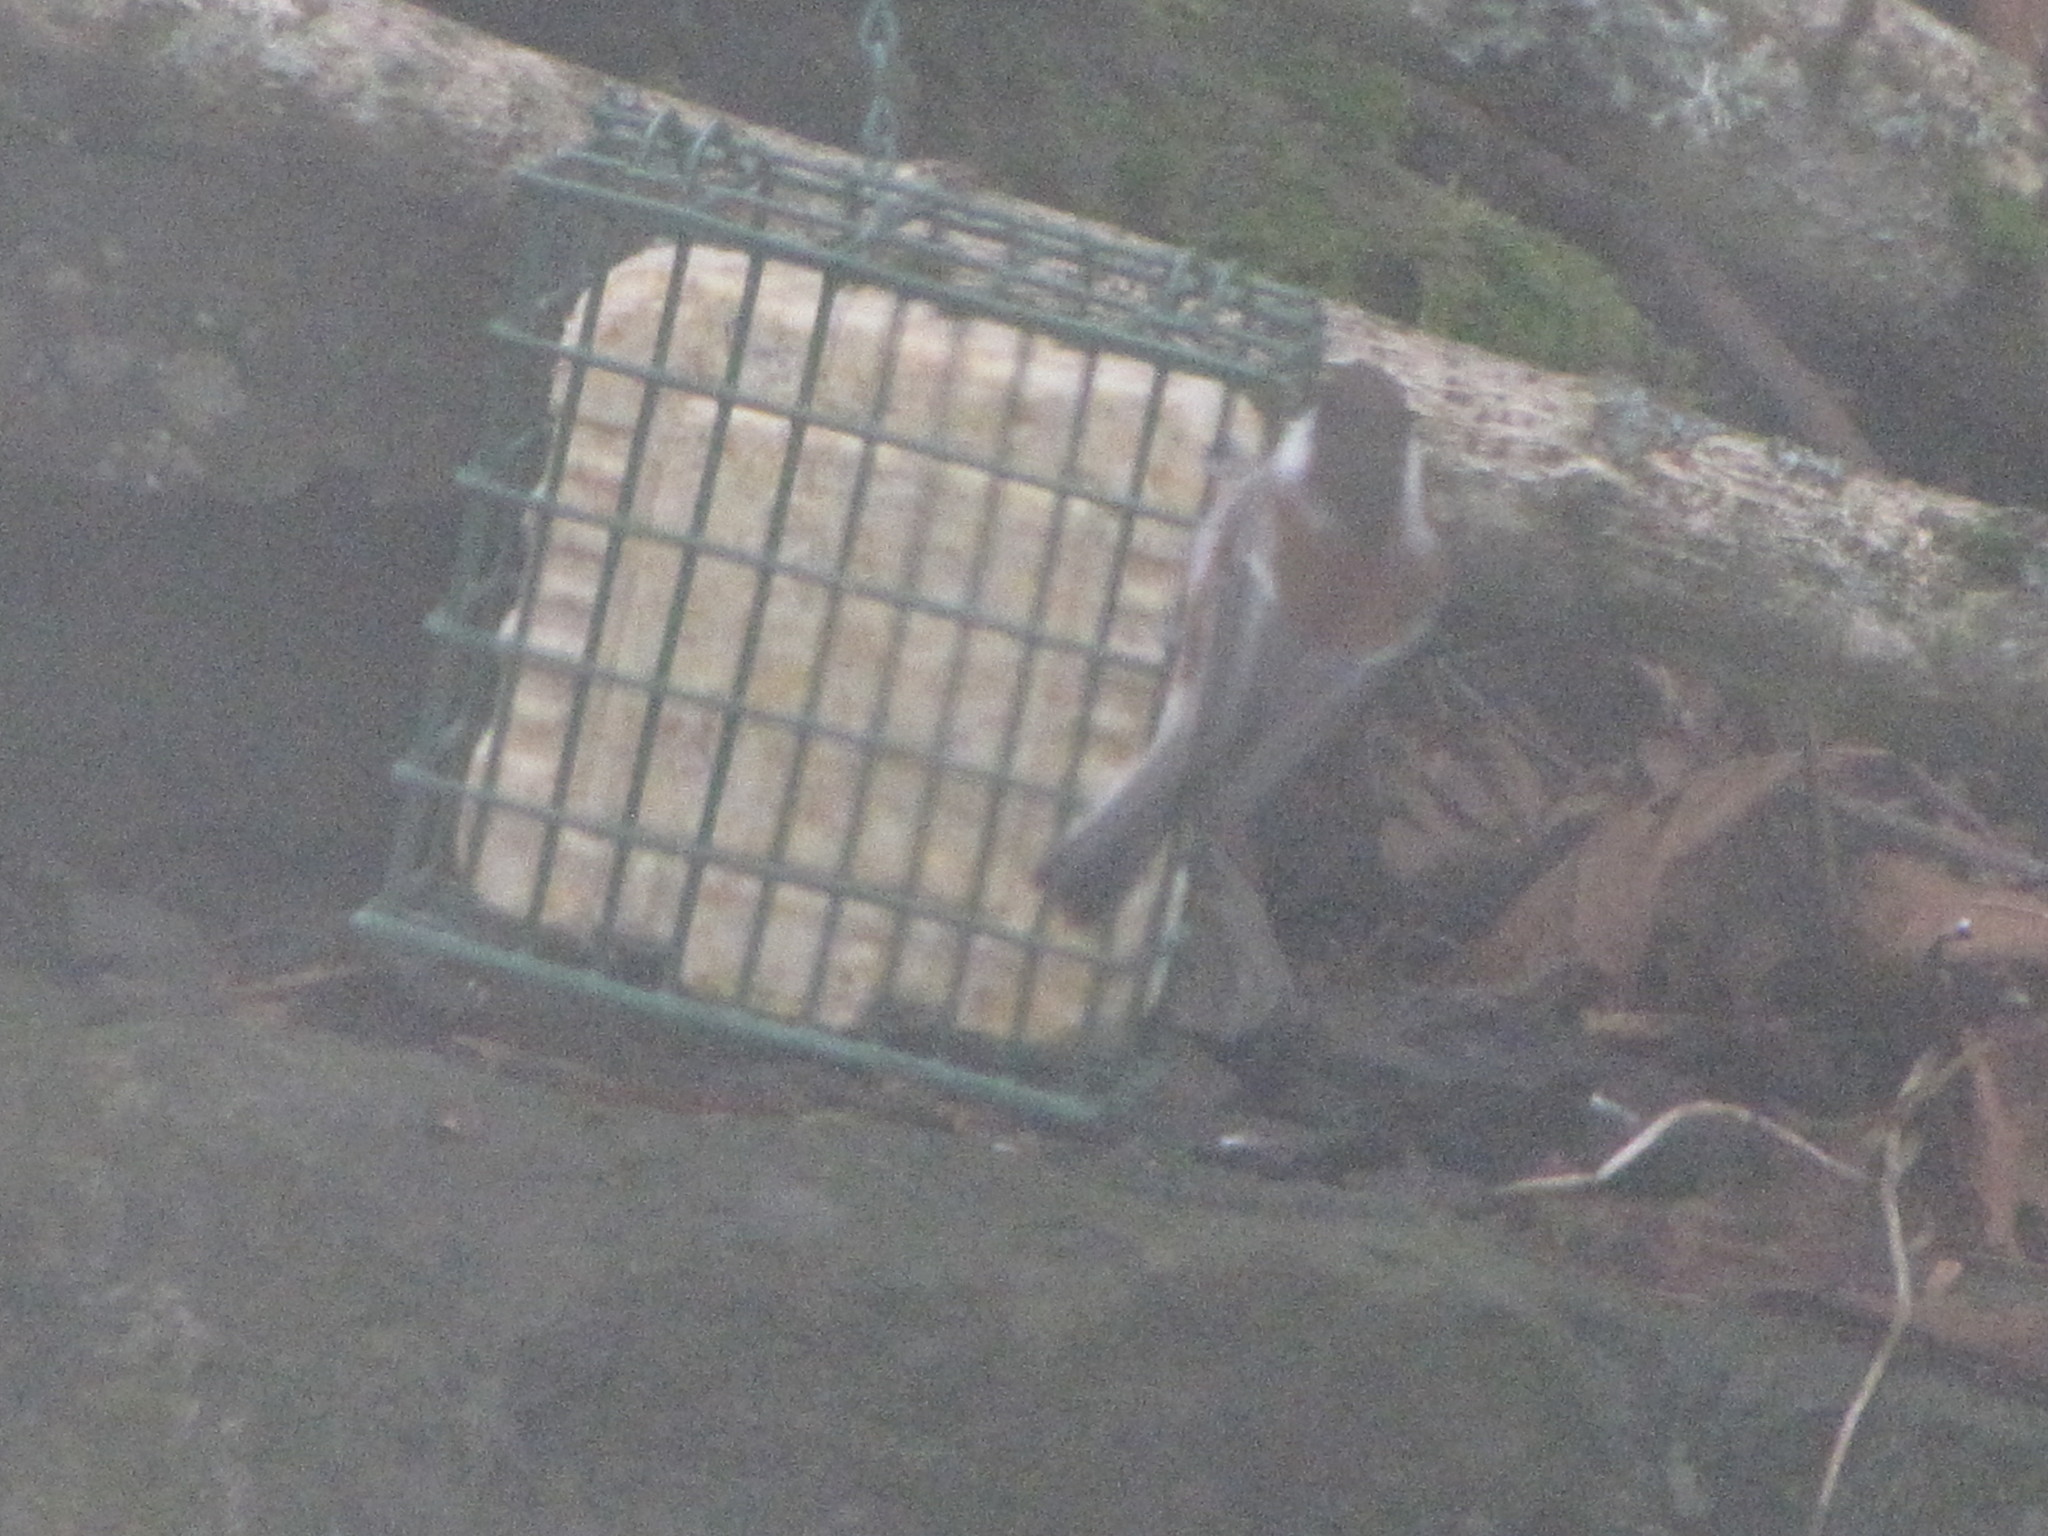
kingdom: Animalia
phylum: Chordata
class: Aves
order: Passeriformes
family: Paridae
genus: Poecile
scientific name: Poecile rufescens
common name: Chestnut-backed chickadee
